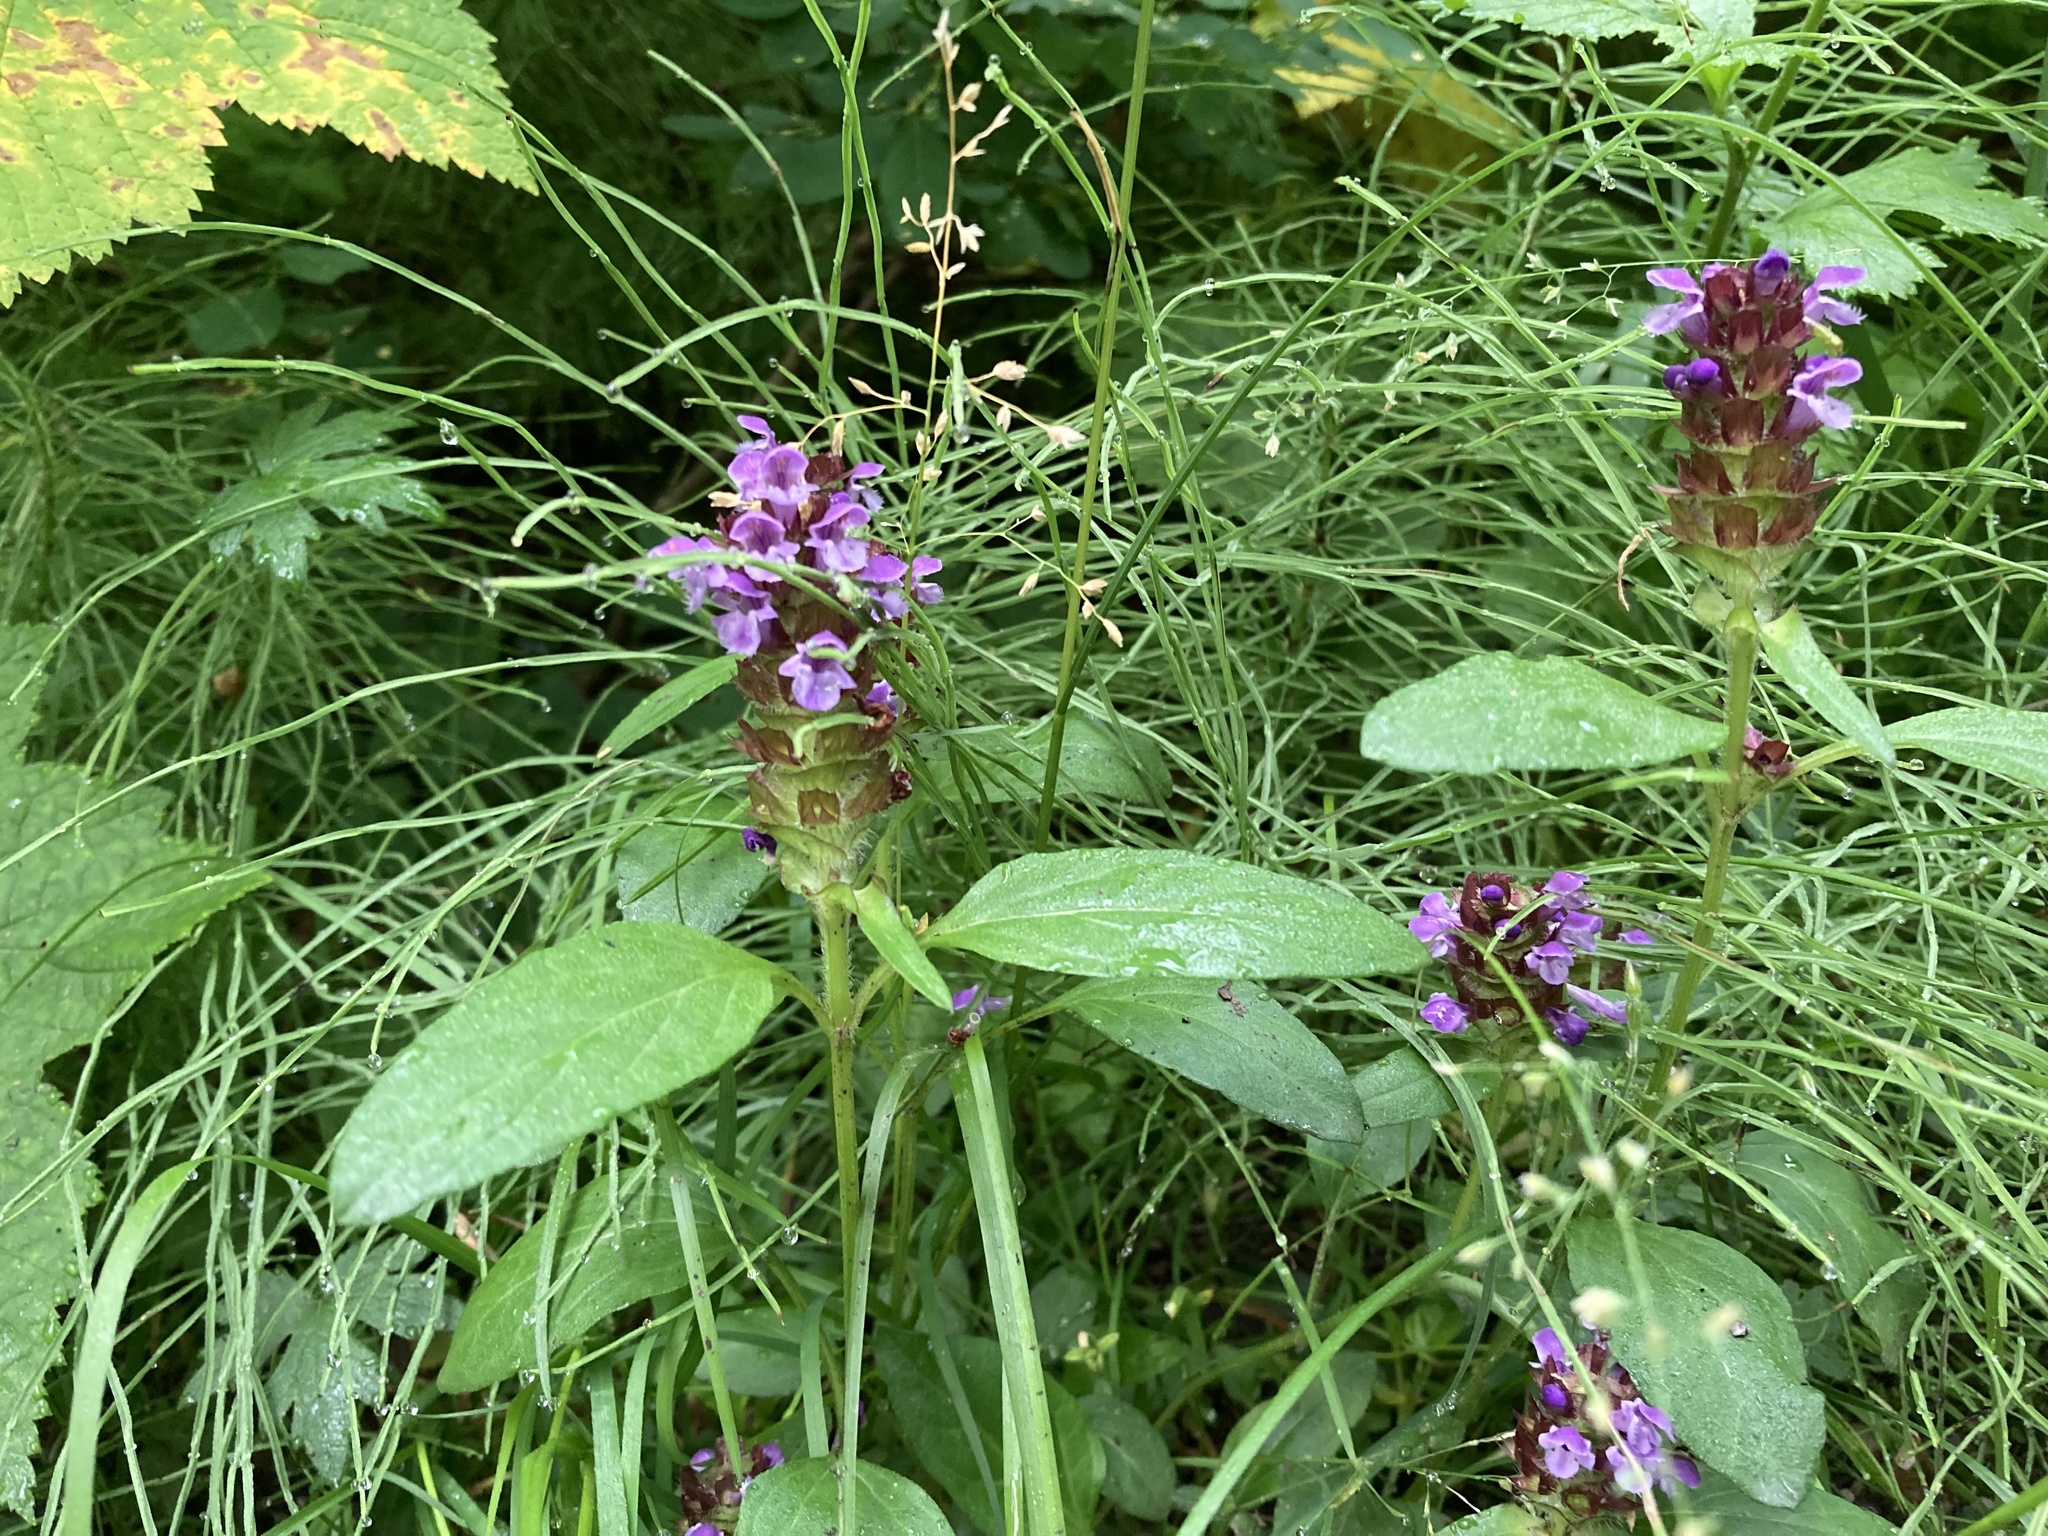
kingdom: Plantae
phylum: Tracheophyta
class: Magnoliopsida
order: Lamiales
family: Lamiaceae
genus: Prunella
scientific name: Prunella vulgaris
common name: Heal-all
